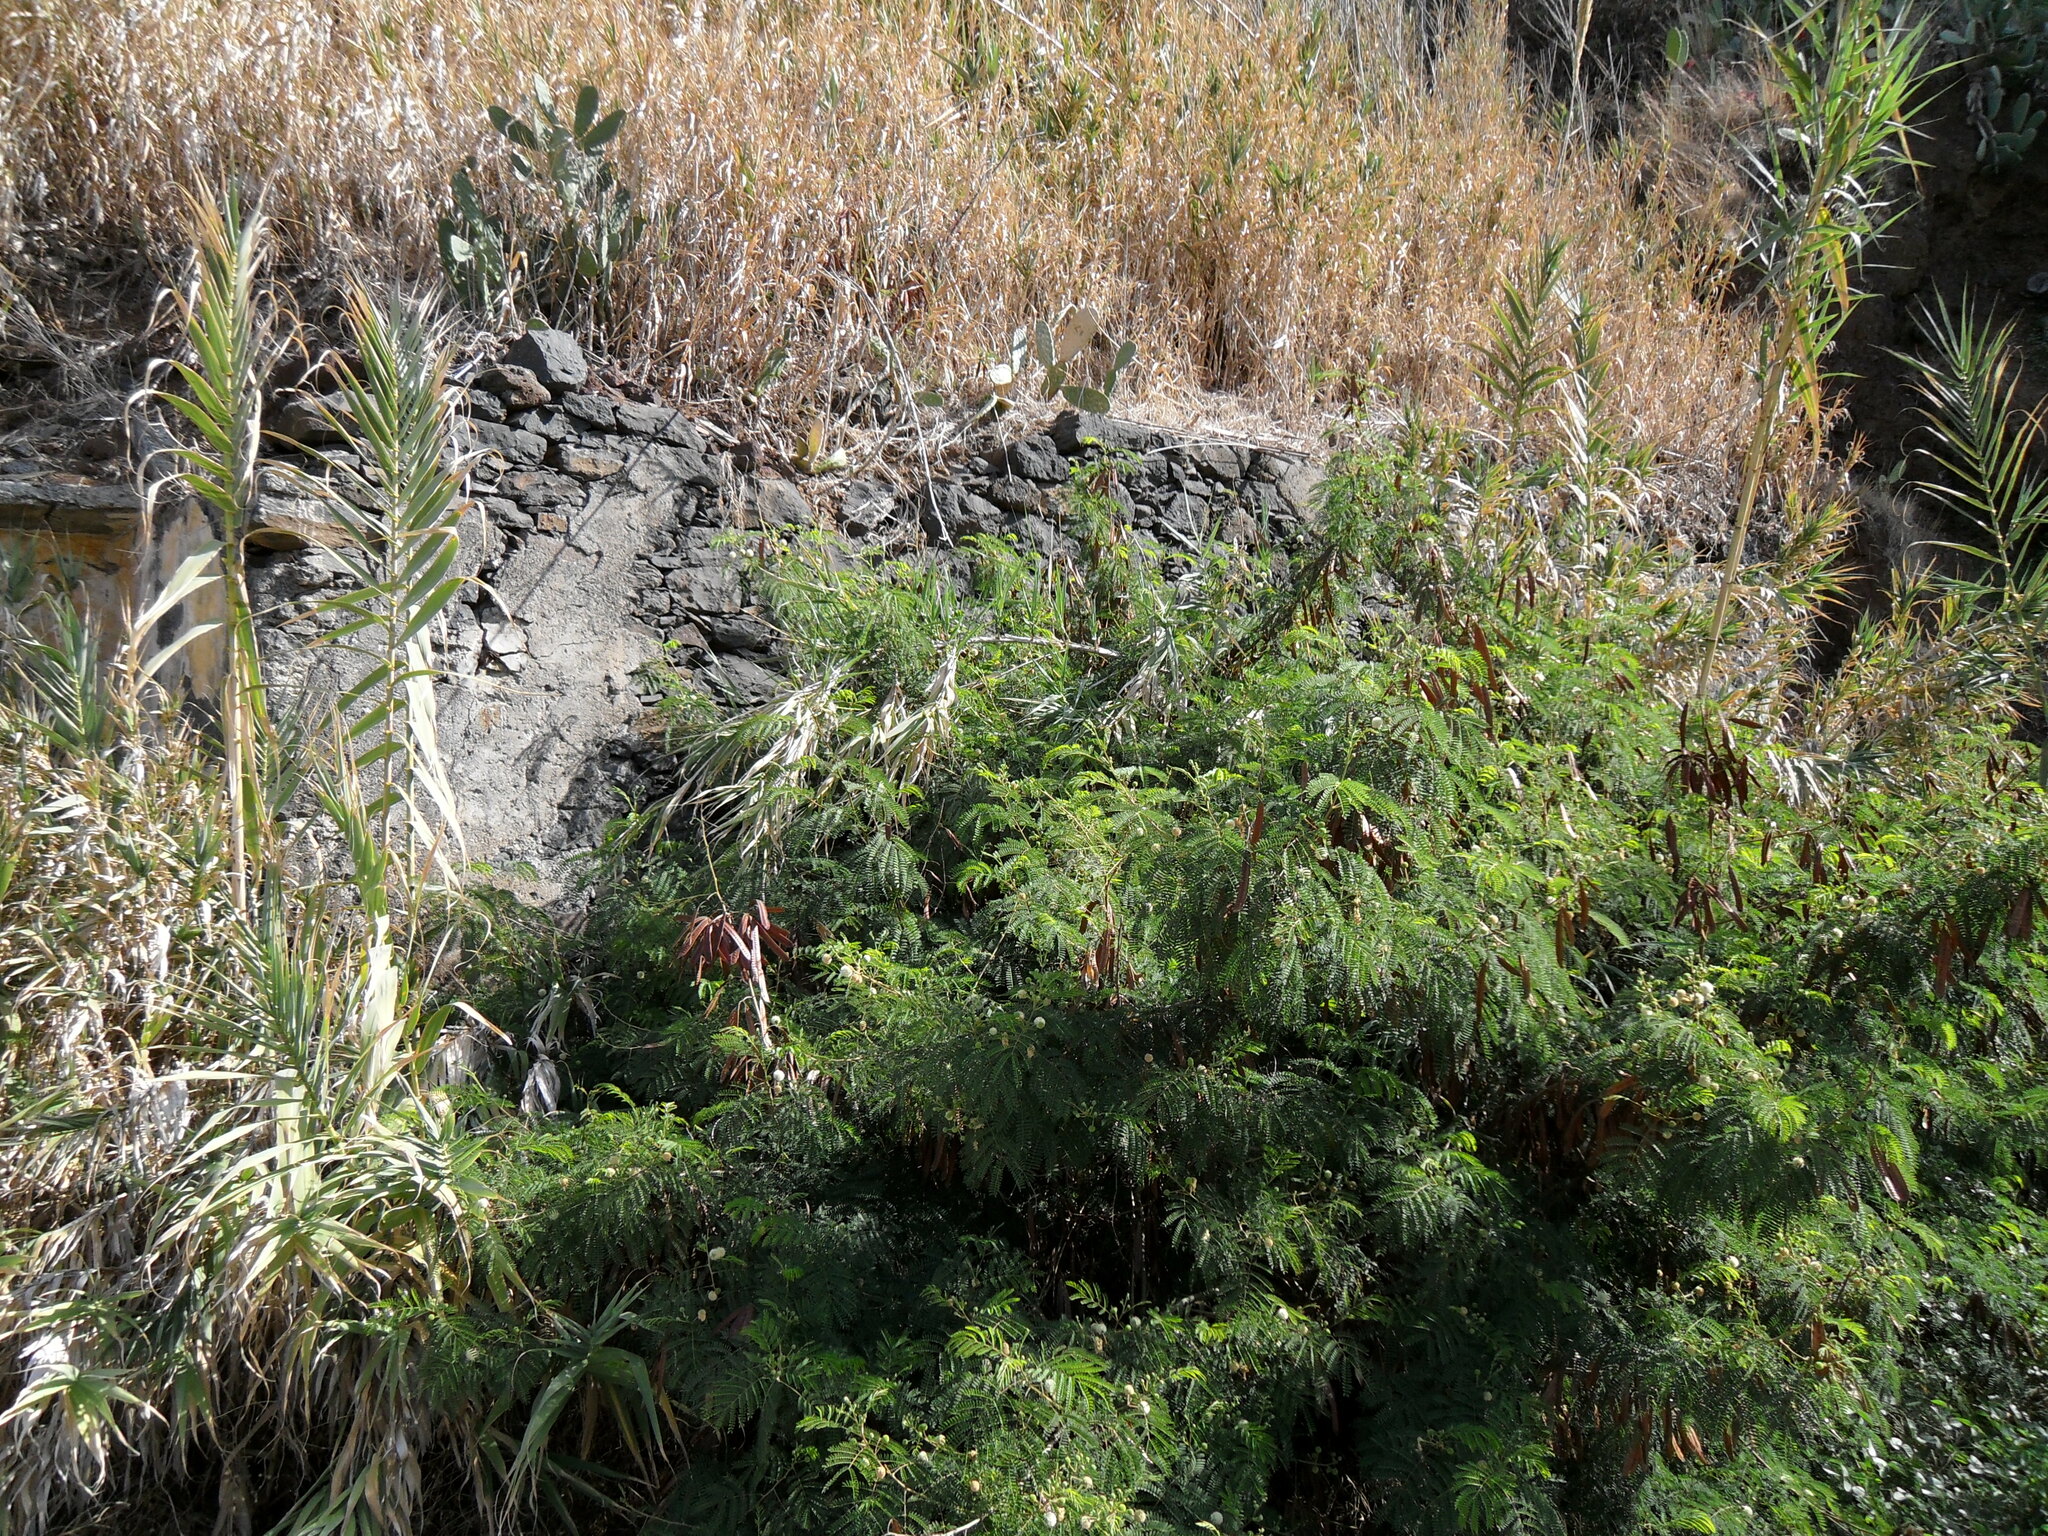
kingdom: Plantae
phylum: Tracheophyta
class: Magnoliopsida
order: Fabales
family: Fabaceae
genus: Leucaena
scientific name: Leucaena leucocephala
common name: White leadtree
